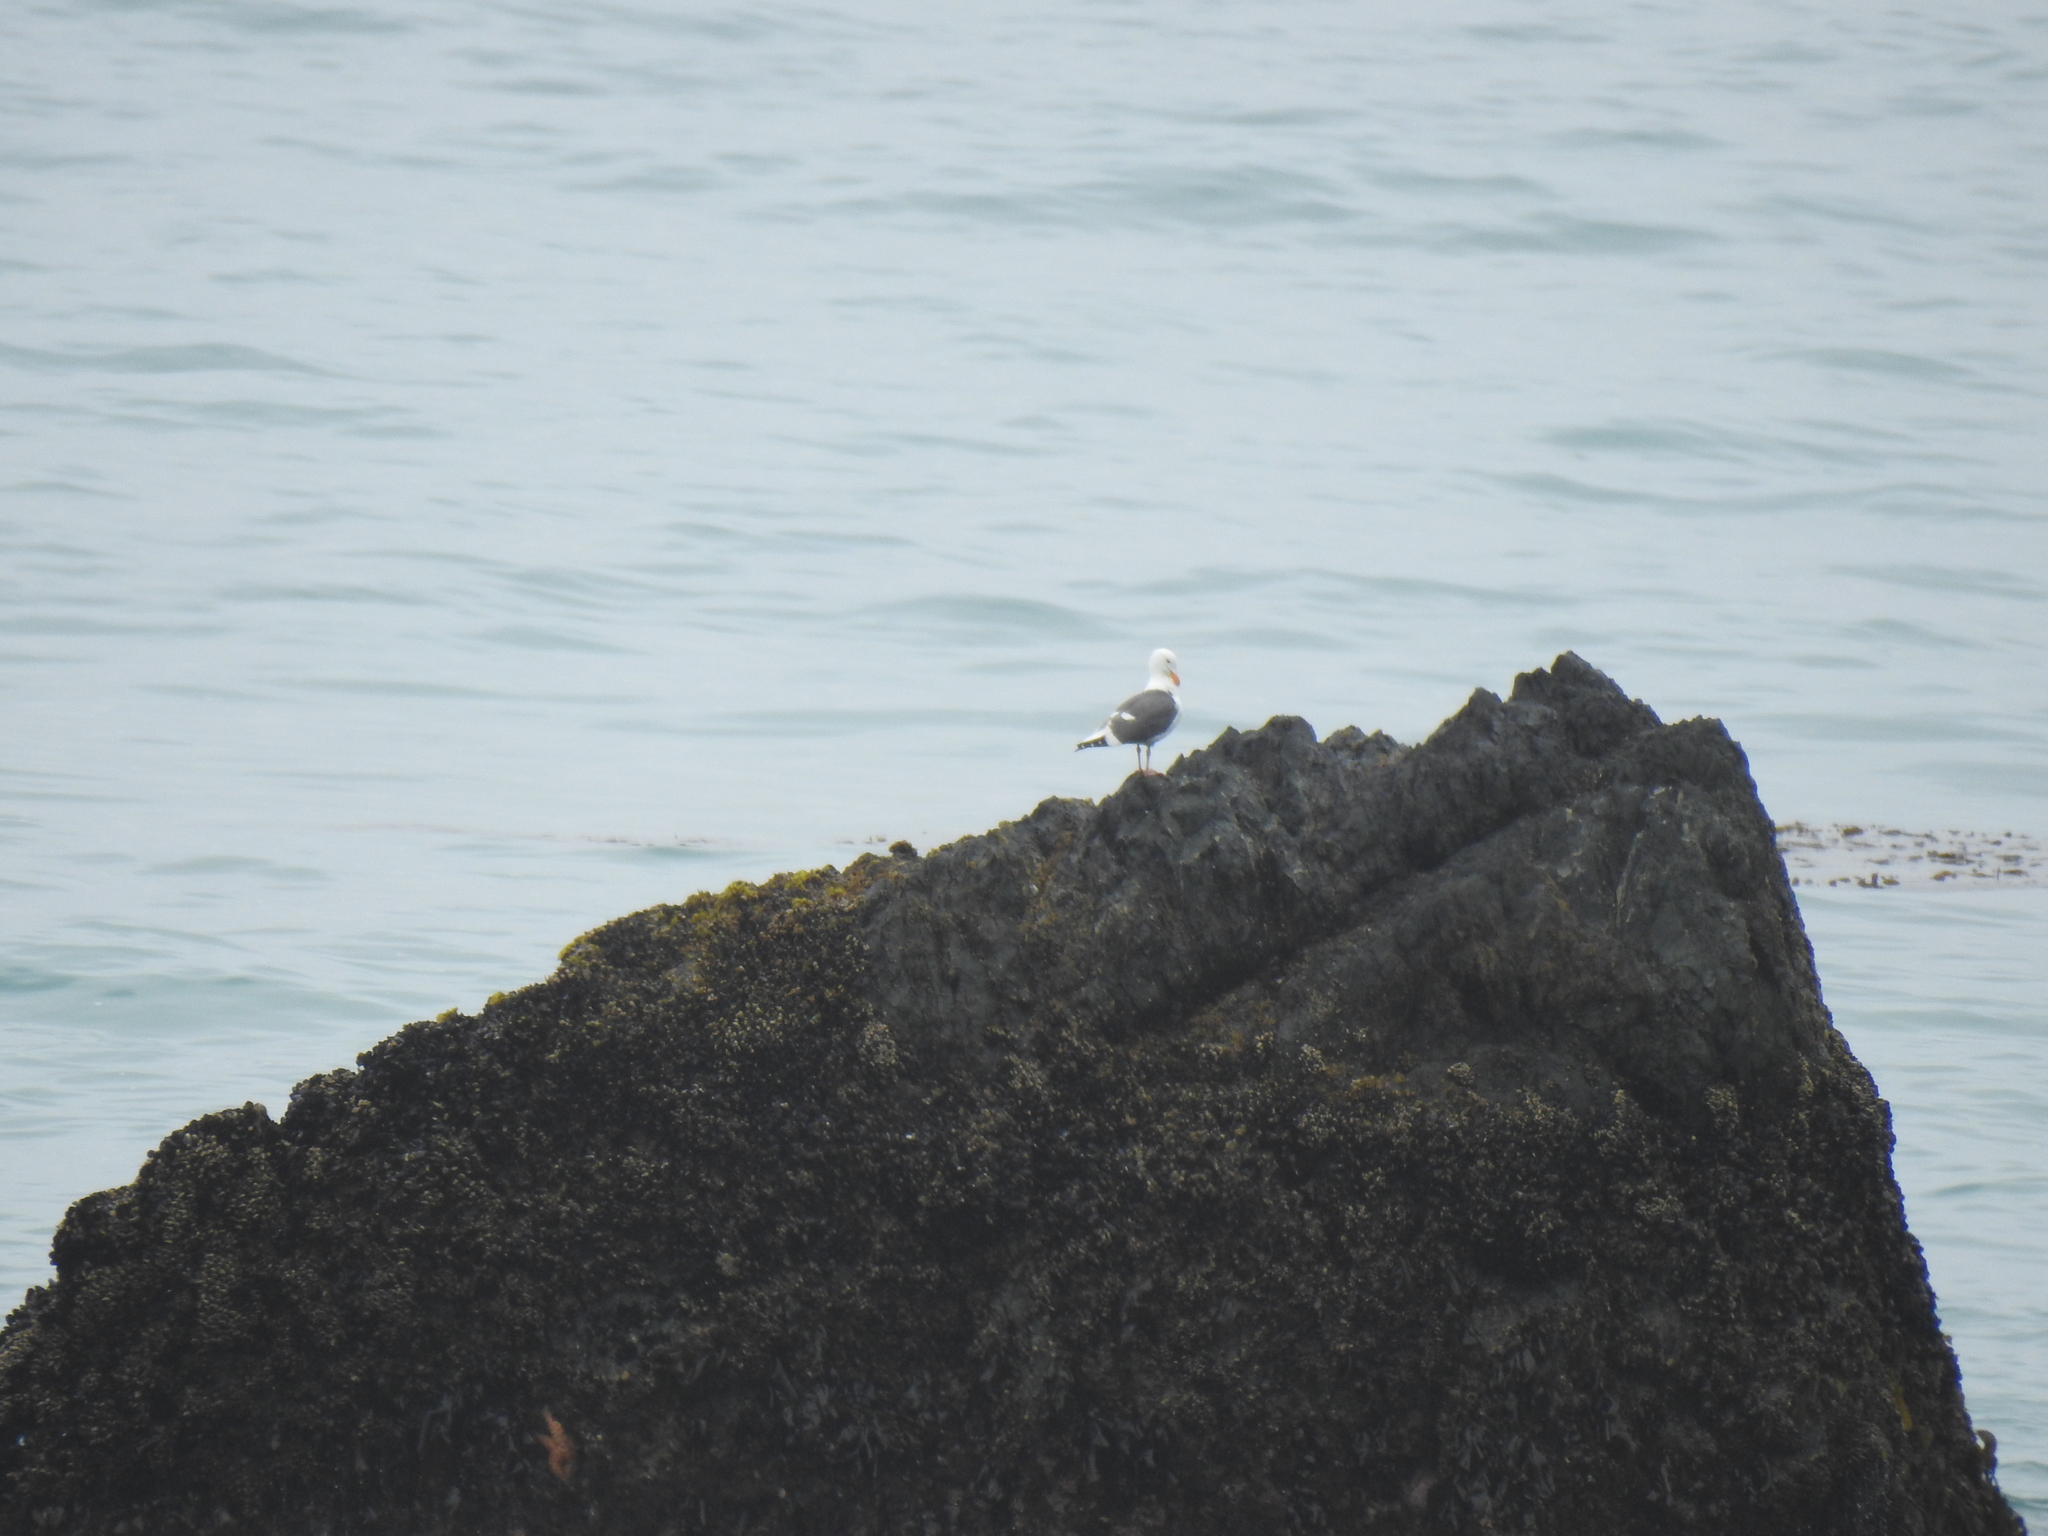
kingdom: Animalia
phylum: Chordata
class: Aves
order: Charadriiformes
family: Laridae
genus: Larus
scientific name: Larus occidentalis
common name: Western gull
